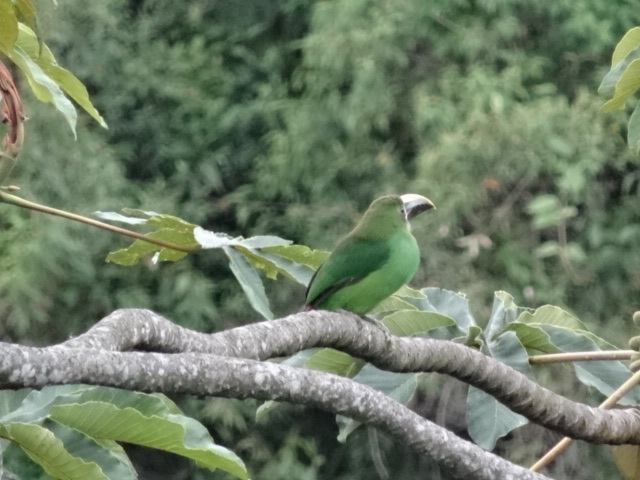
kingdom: Animalia
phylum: Chordata
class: Aves
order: Piciformes
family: Ramphastidae
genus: Aulacorhynchus
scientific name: Aulacorhynchus albivitta
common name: White-throated toucanet
